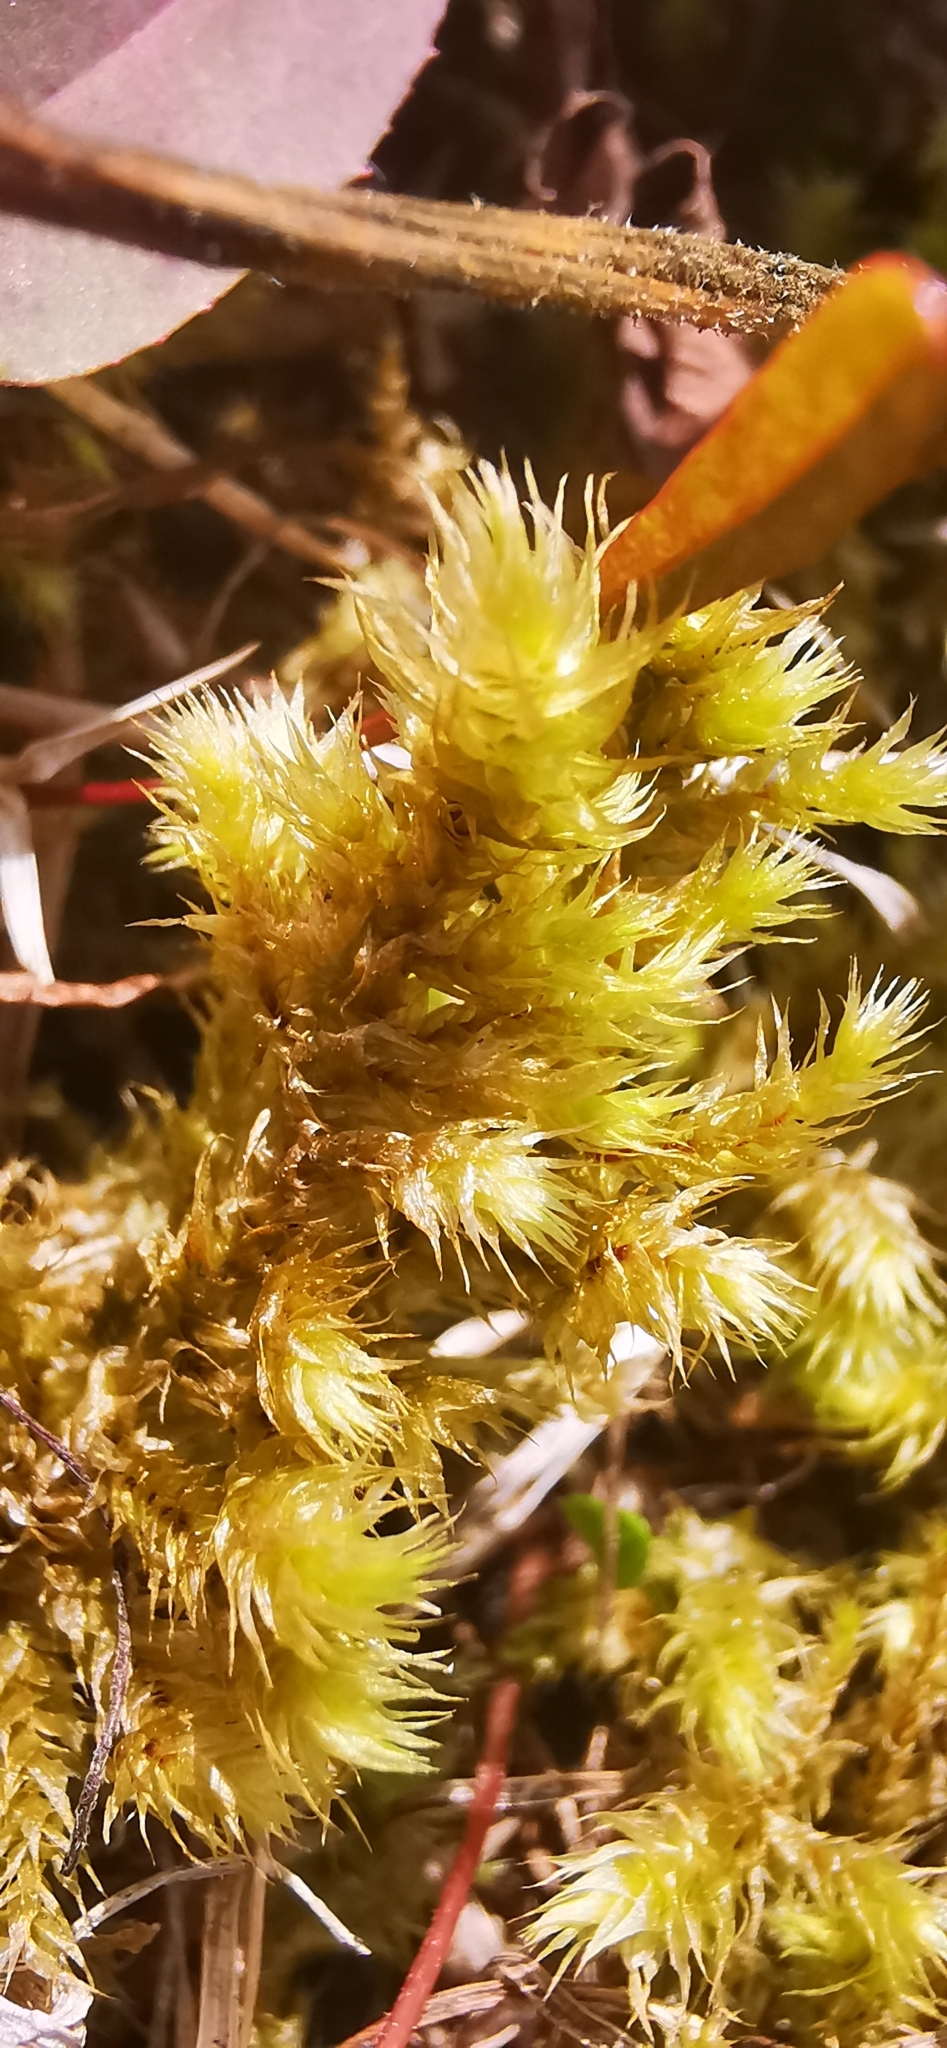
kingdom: Plantae
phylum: Bryophyta
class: Bryopsida
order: Hypnales
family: Hylocomiaceae
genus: Hylocomiadelphus
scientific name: Hylocomiadelphus triquetrus
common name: Rough goose neck moss
